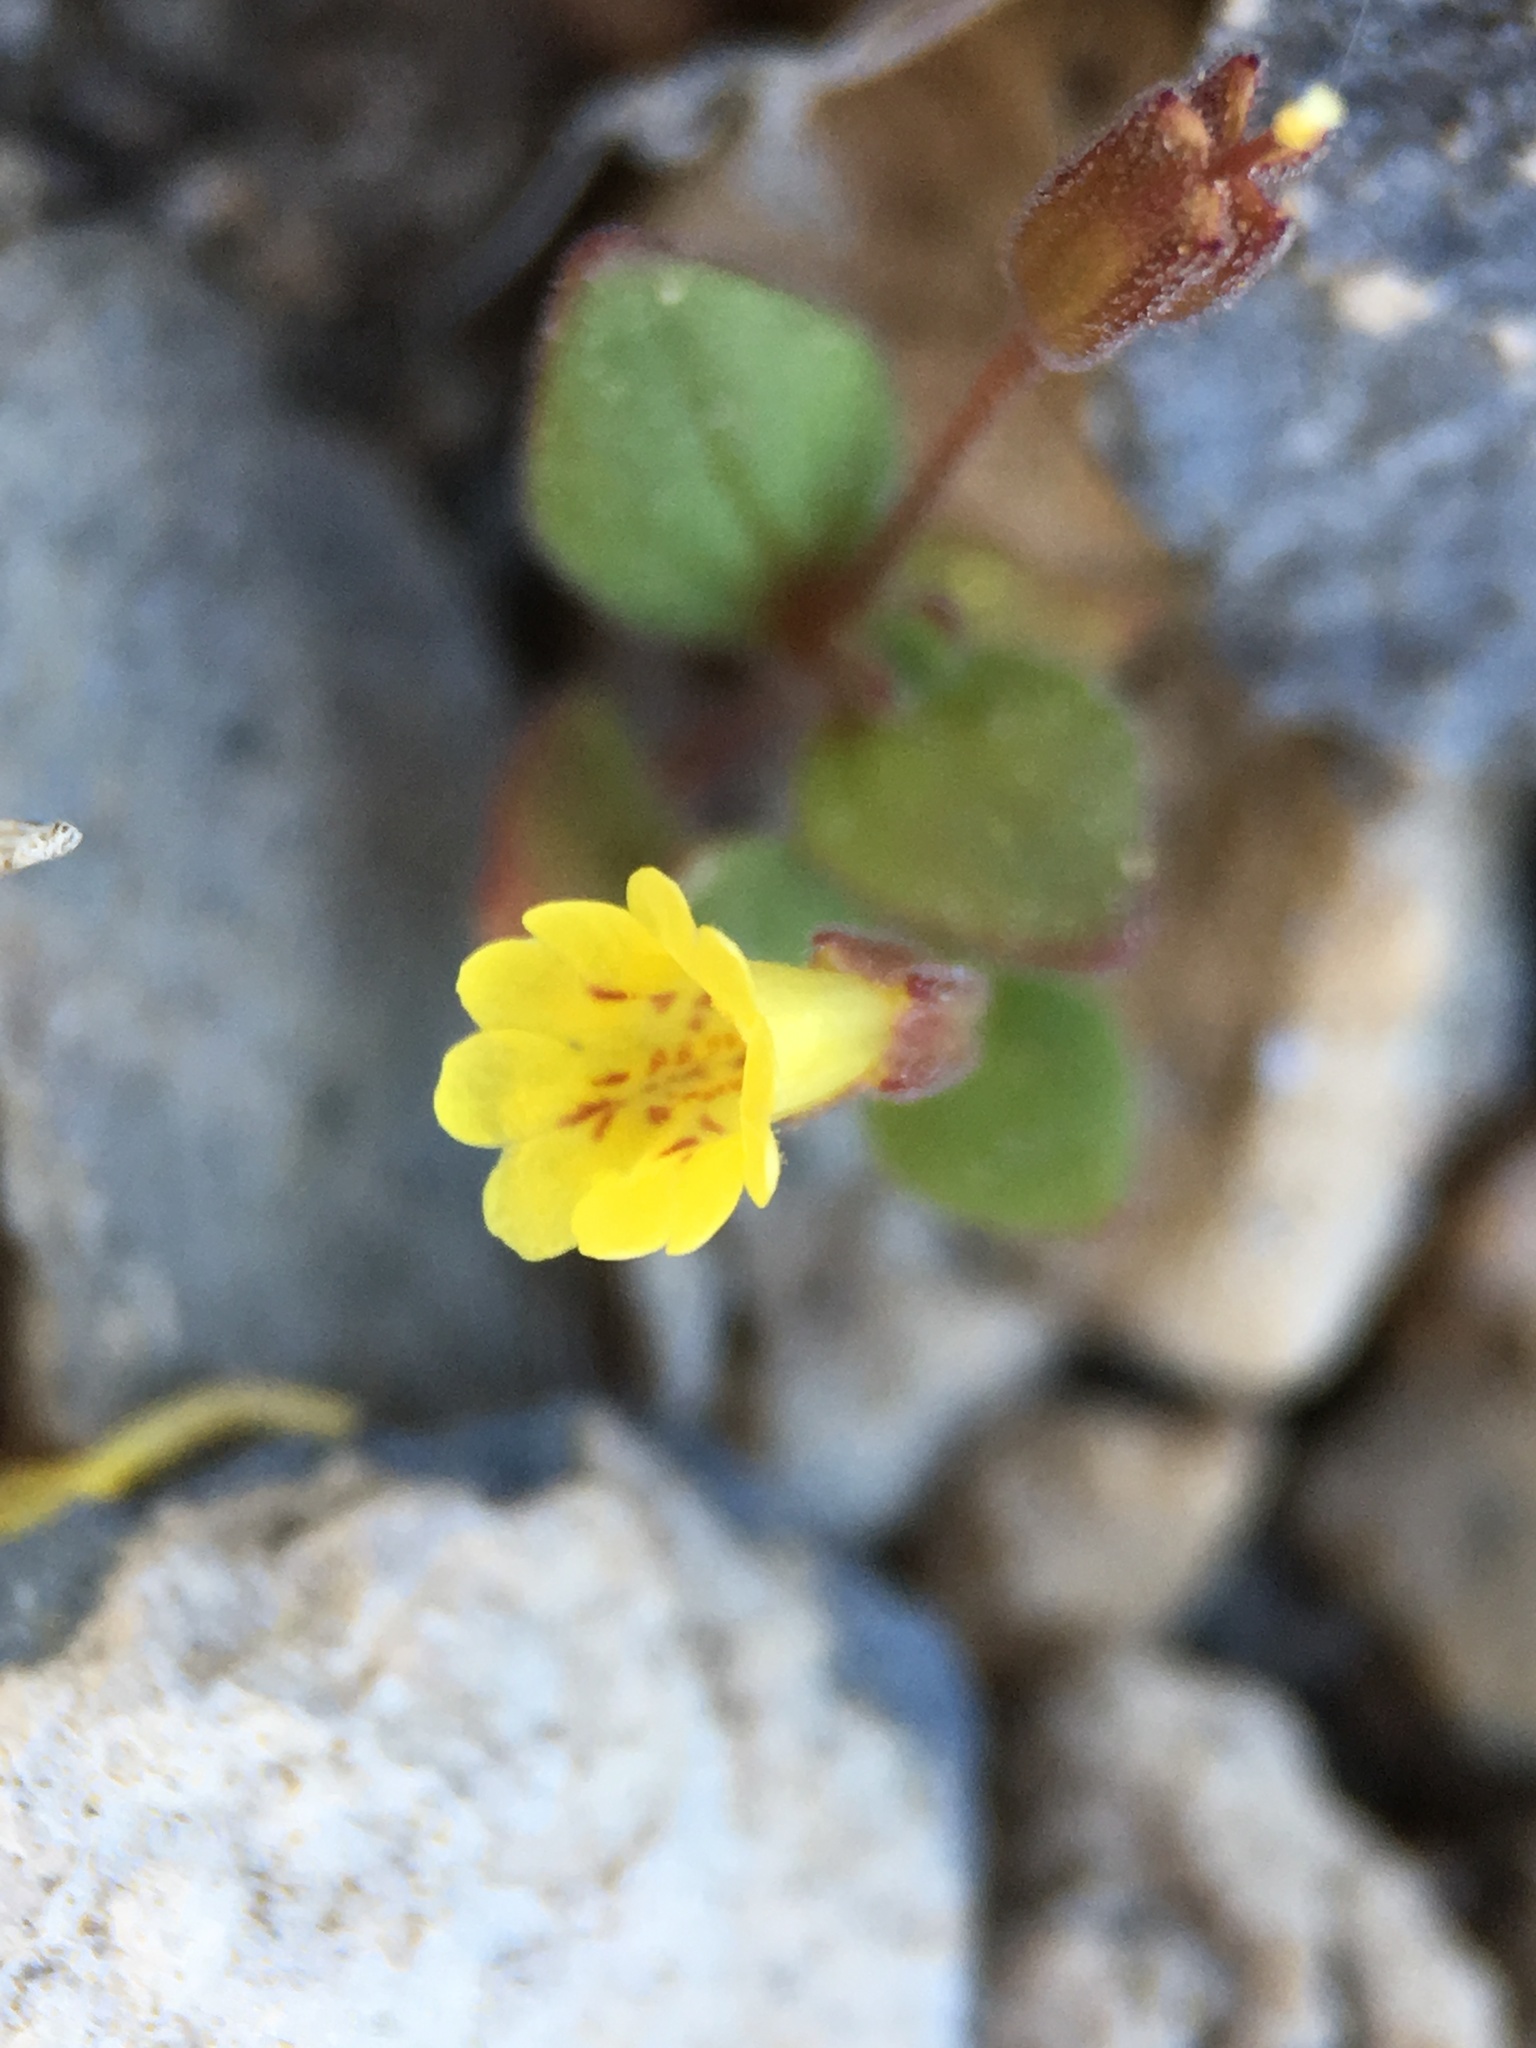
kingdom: Plantae
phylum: Tracheophyta
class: Magnoliopsida
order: Lamiales
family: Phrymaceae
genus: Erythranthe
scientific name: Erythranthe calcicola
